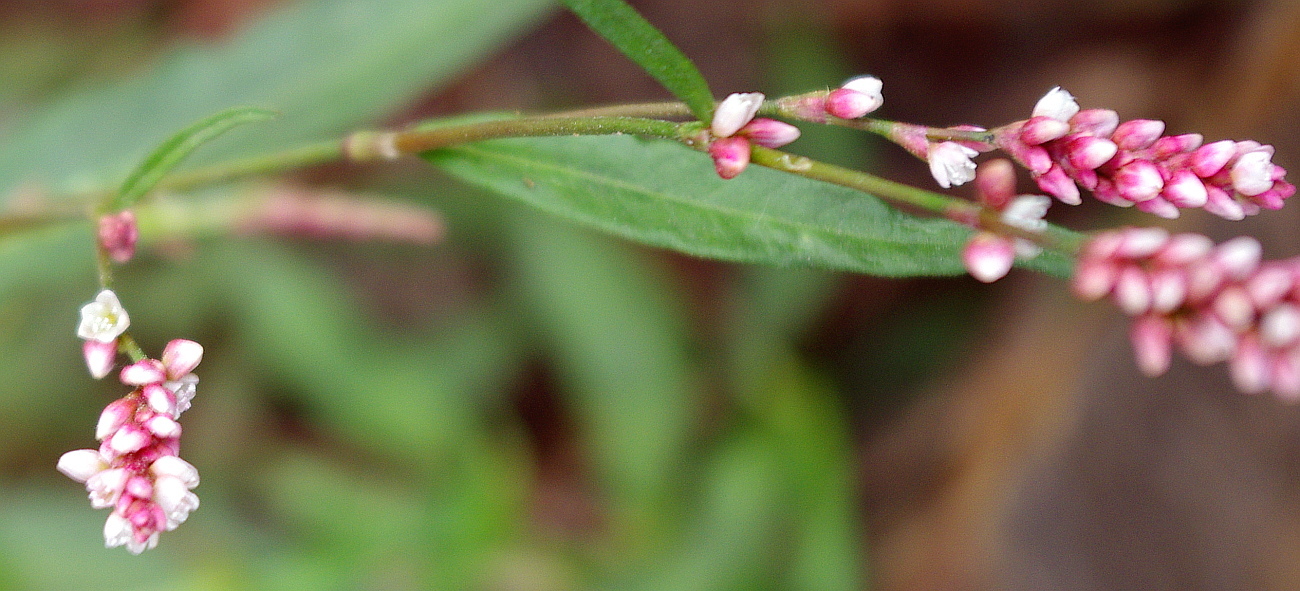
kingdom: Plantae
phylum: Tracheophyta
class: Magnoliopsida
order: Caryophyllales
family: Polygonaceae
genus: Persicaria
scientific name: Persicaria maculosa
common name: Redshank
